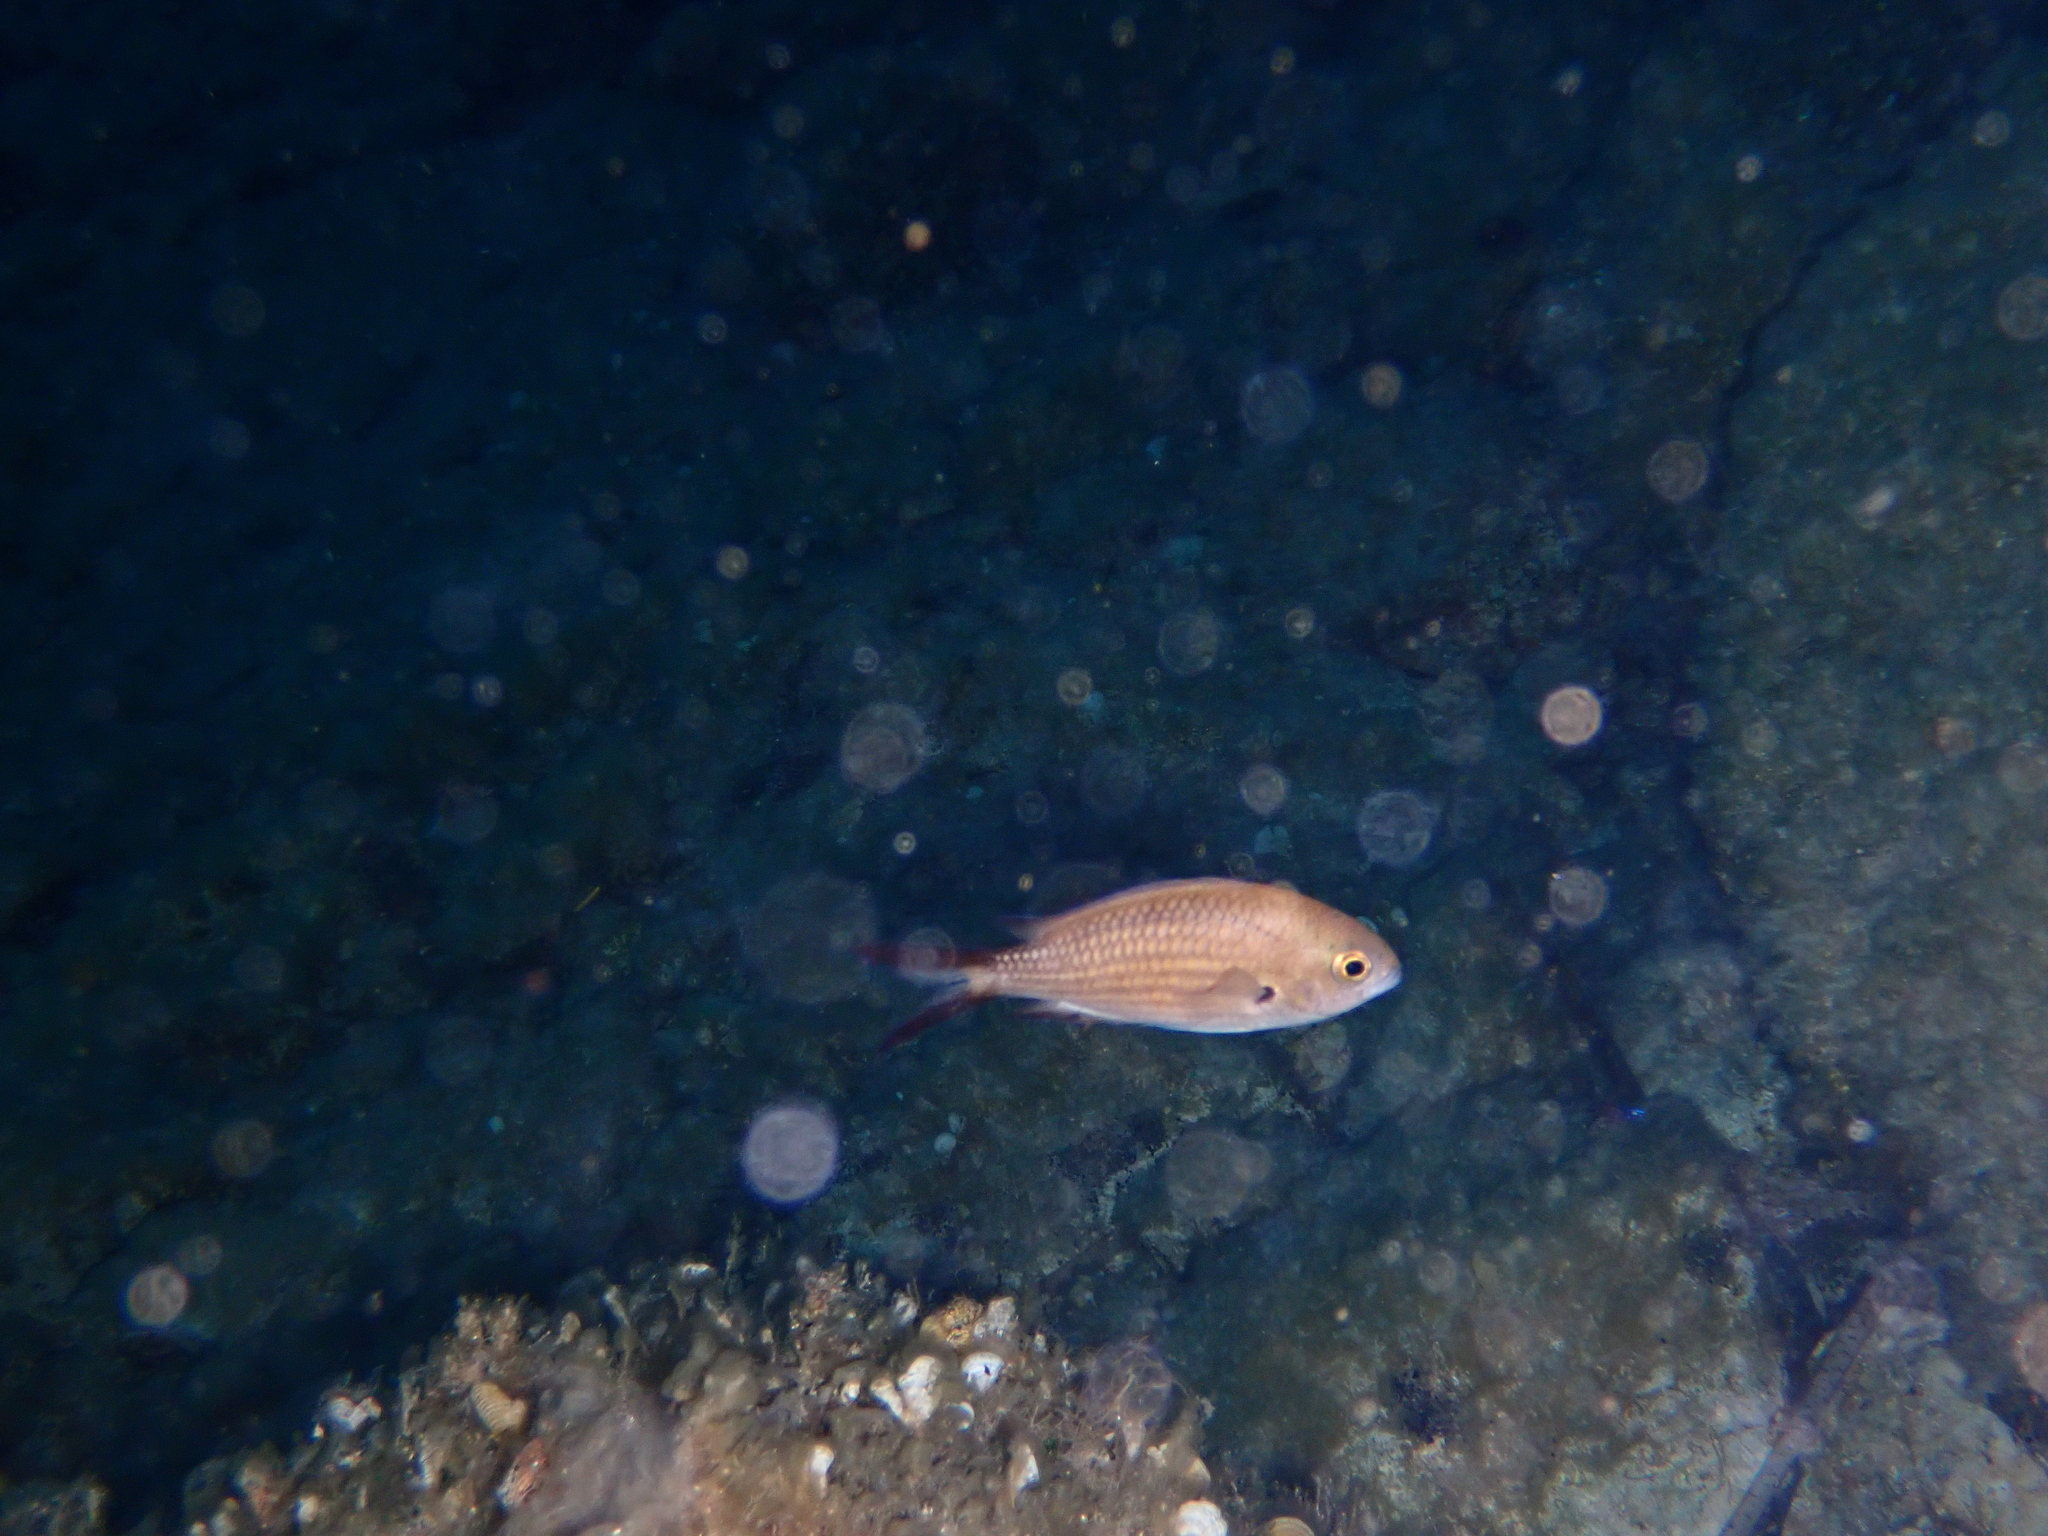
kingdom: Animalia
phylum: Chordata
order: Perciformes
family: Pomacentridae
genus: Chromis
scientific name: Chromis chromis
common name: Damselfish
